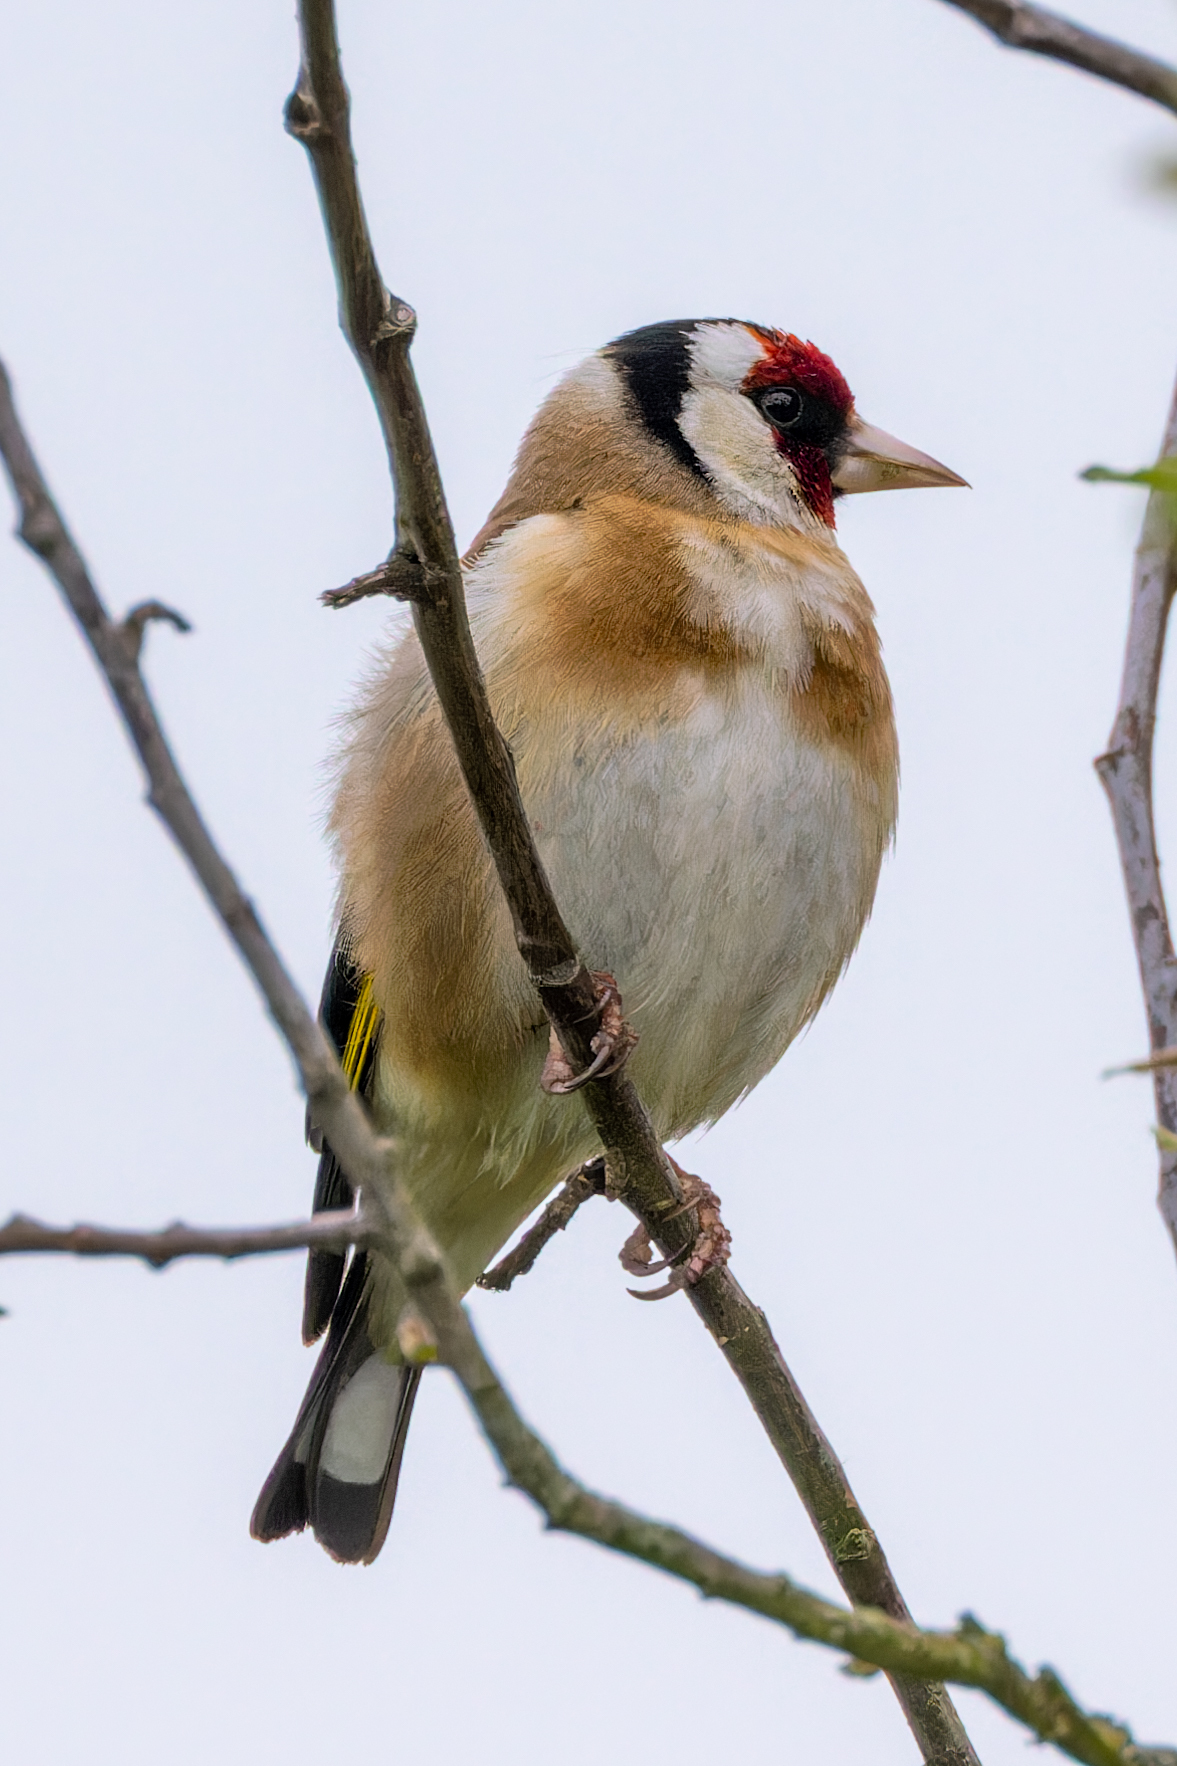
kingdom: Animalia
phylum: Chordata
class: Aves
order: Passeriformes
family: Fringillidae
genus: Carduelis
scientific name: Carduelis carduelis
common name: European goldfinch
